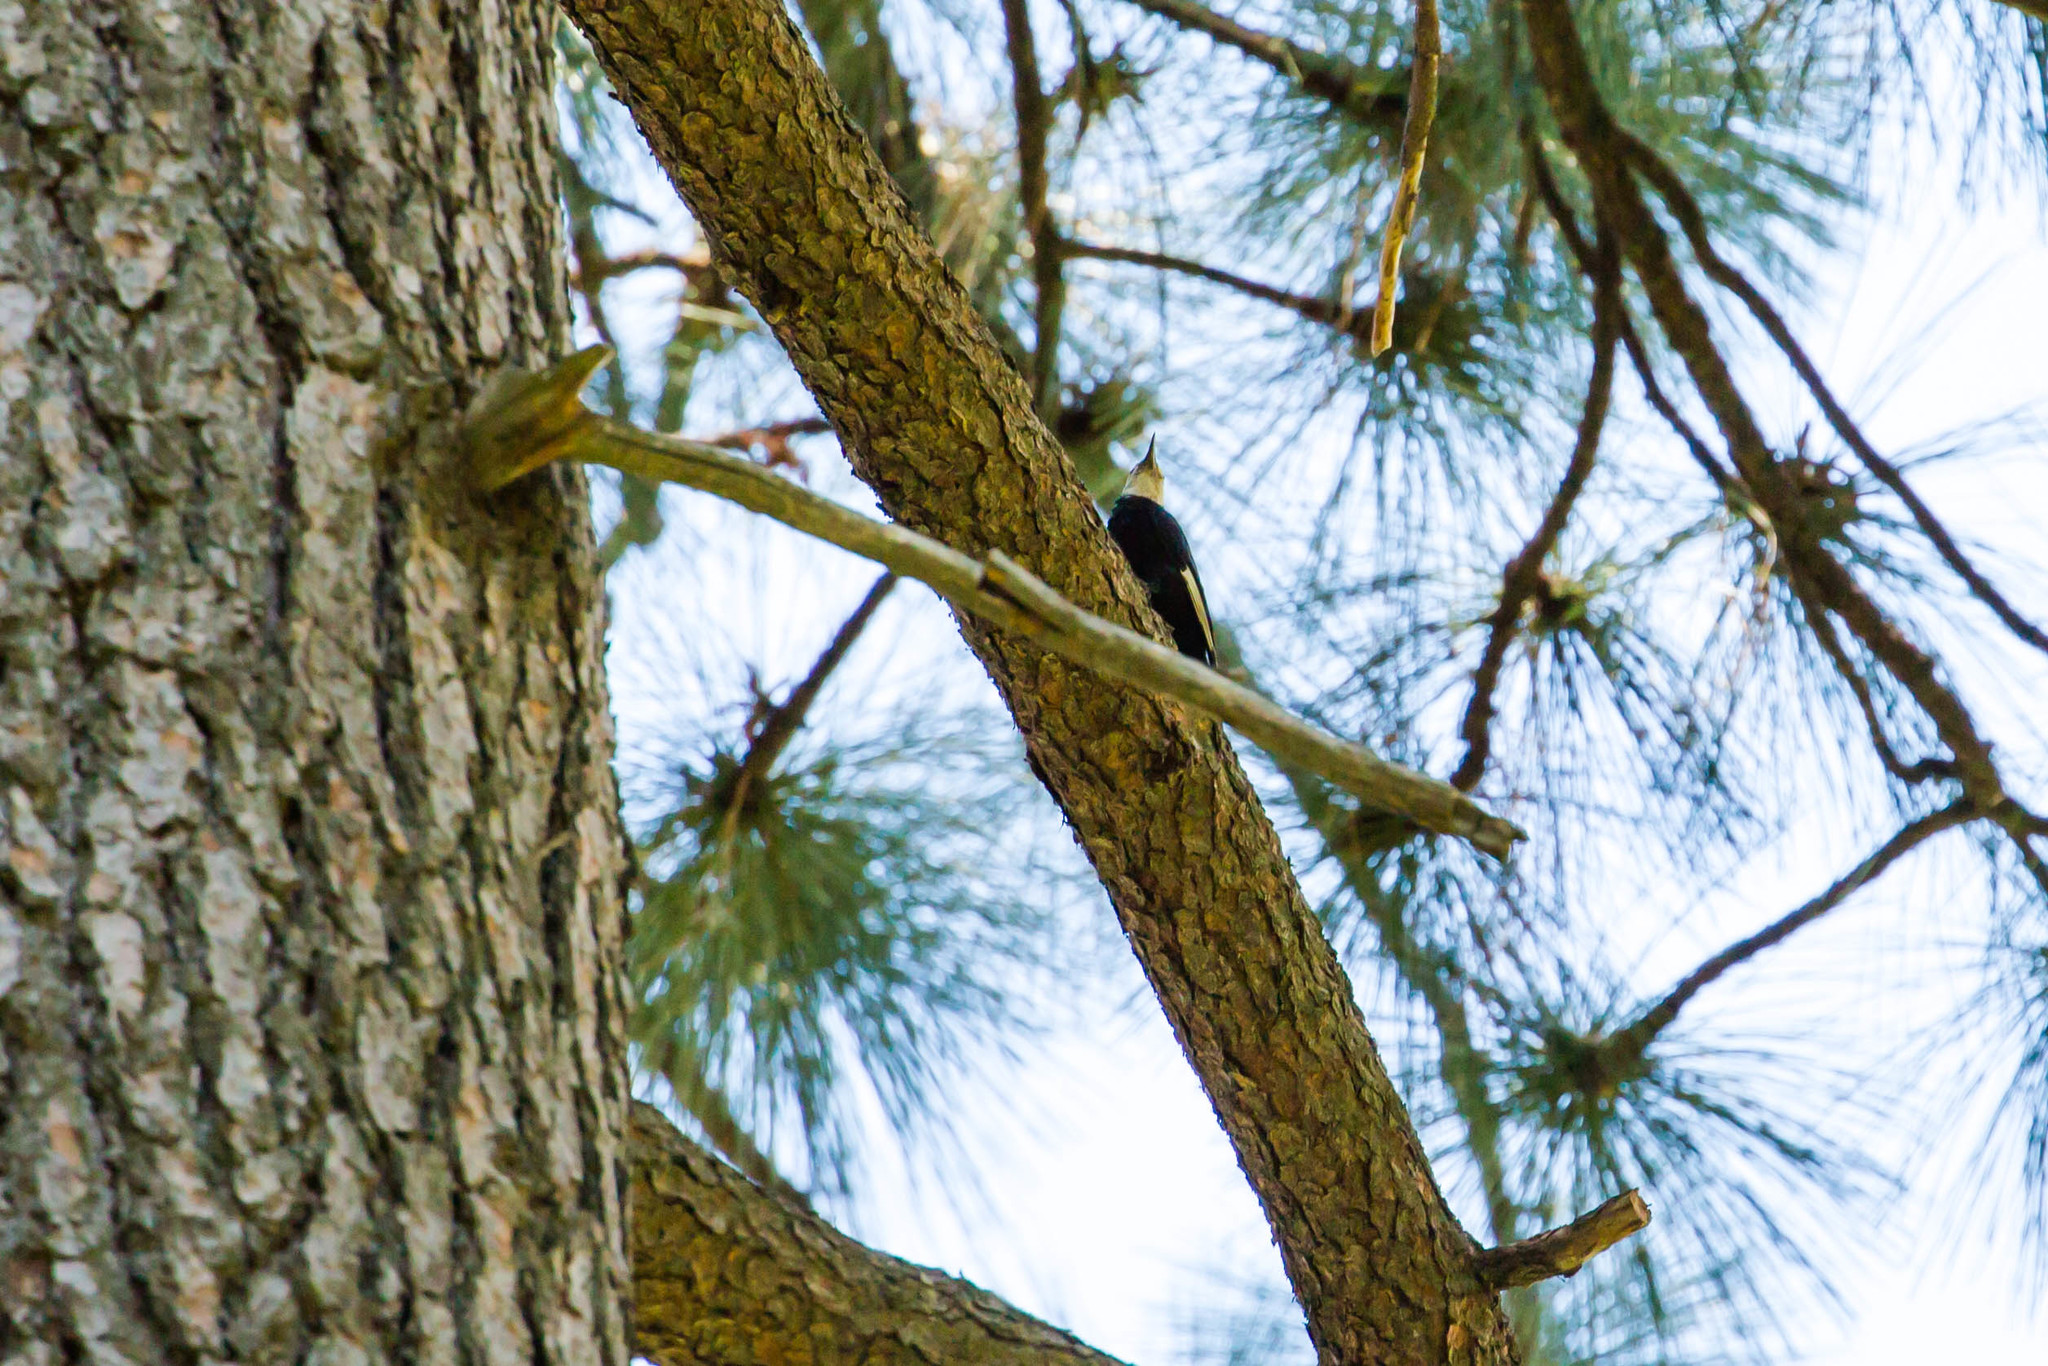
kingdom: Animalia
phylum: Chordata
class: Aves
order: Piciformes
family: Picidae
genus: Leuconotopicus
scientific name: Leuconotopicus albolarvatus
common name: White-headed woodpecker
